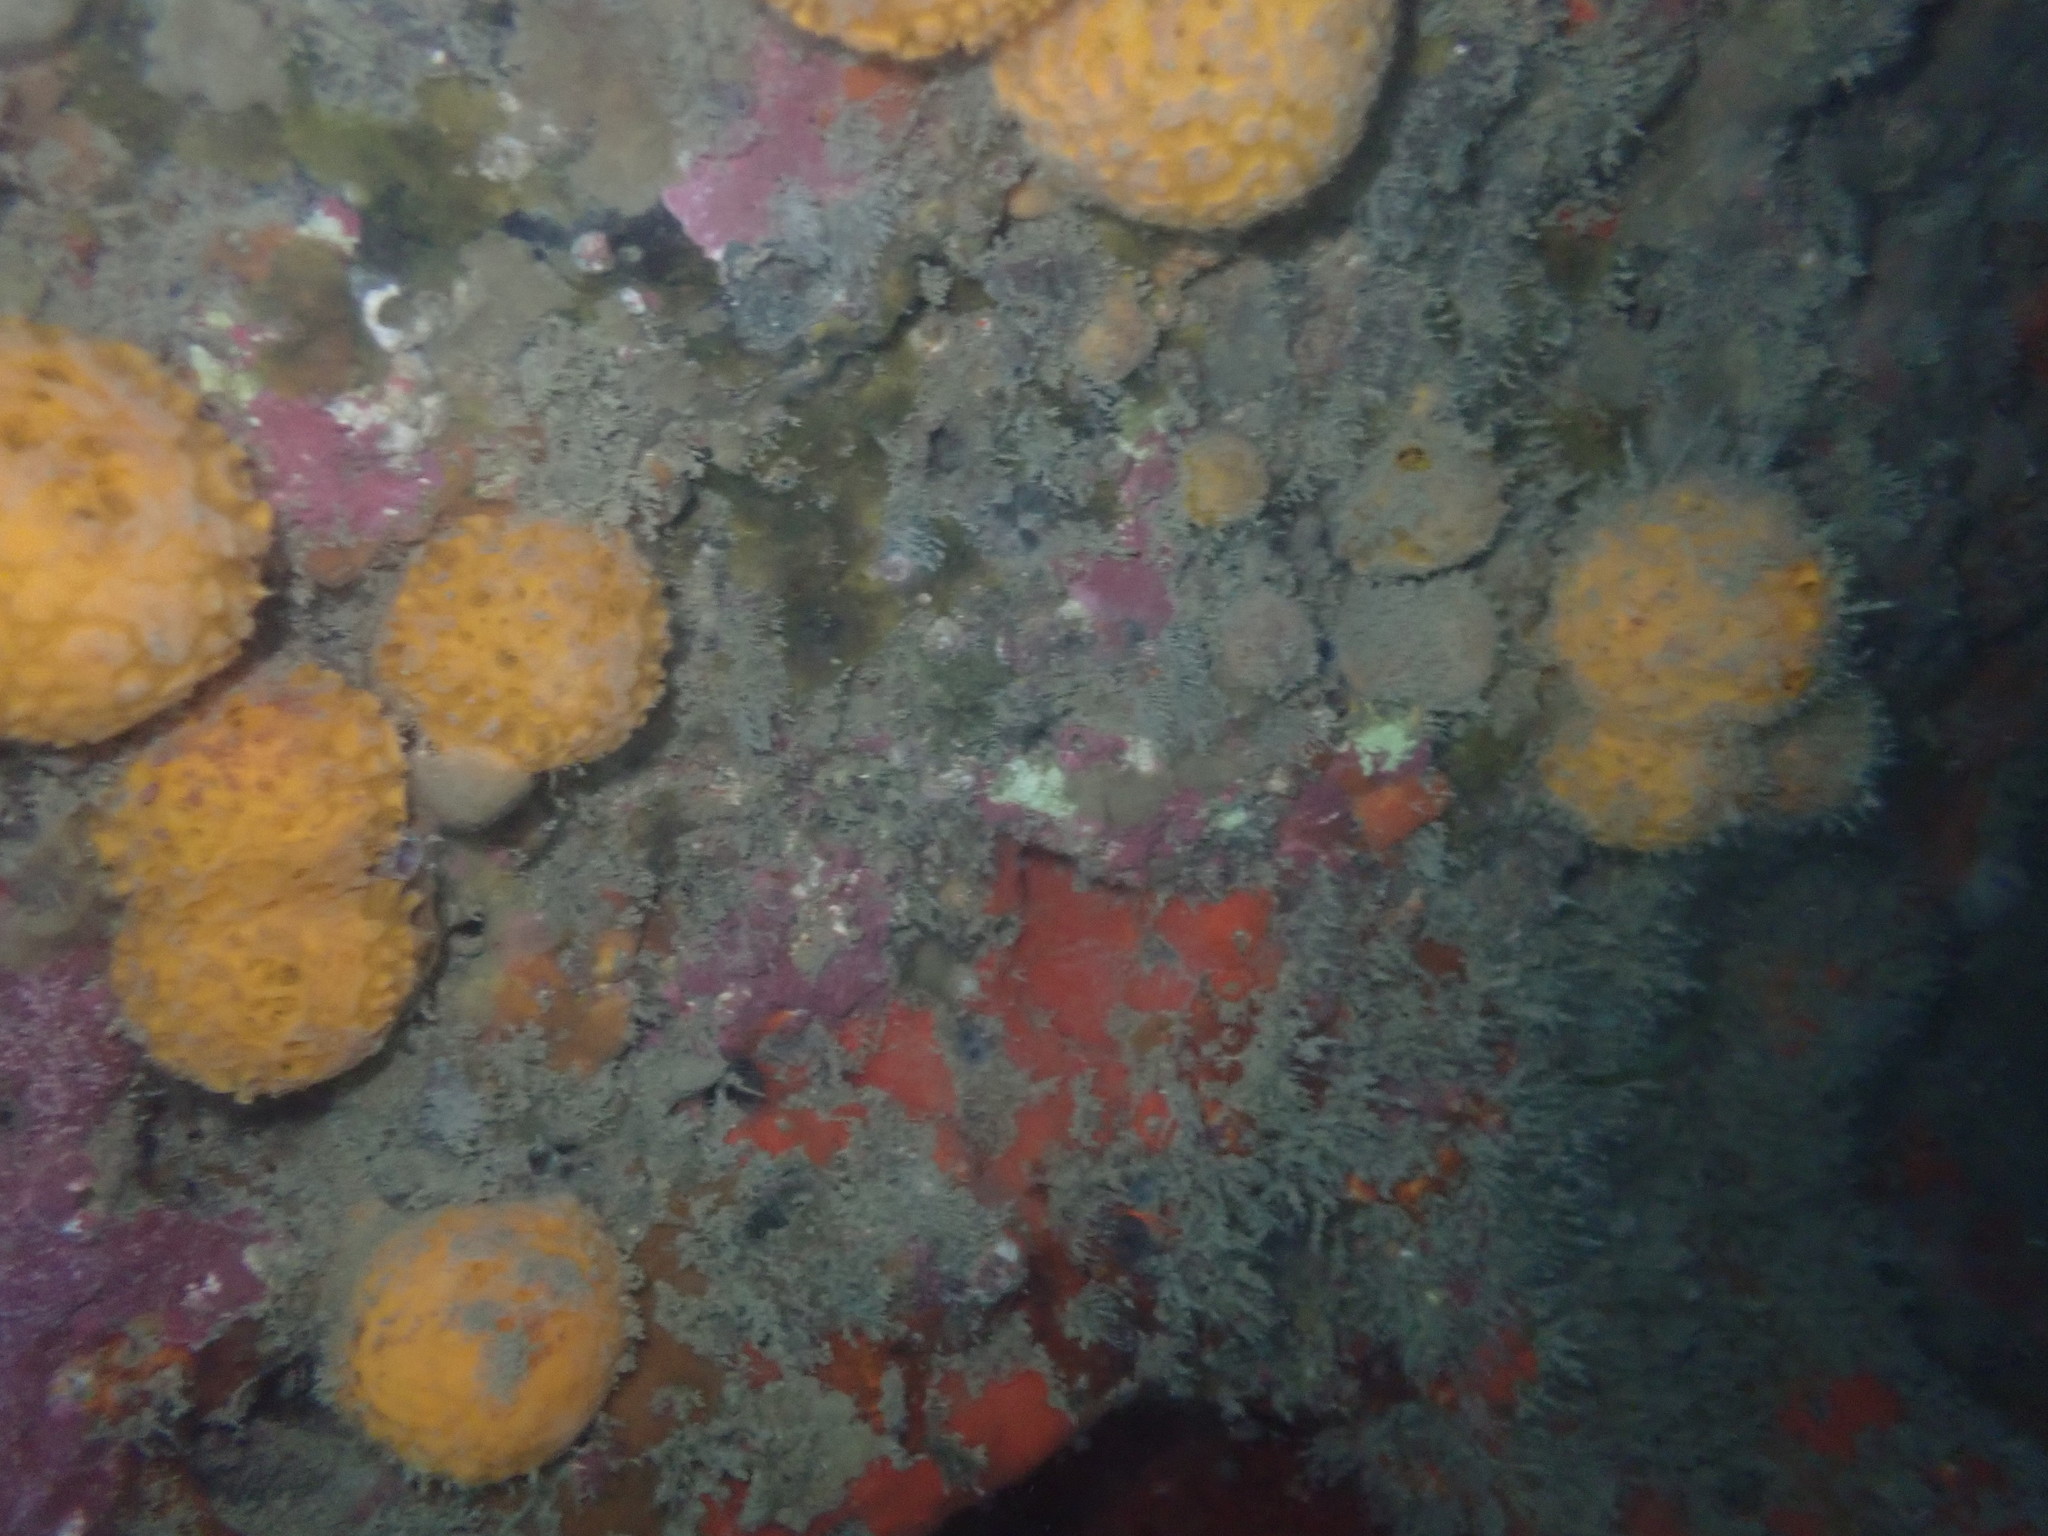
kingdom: Animalia
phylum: Porifera
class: Demospongiae
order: Tethyida
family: Tethyidae
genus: Tethya
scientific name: Tethya burtoni
